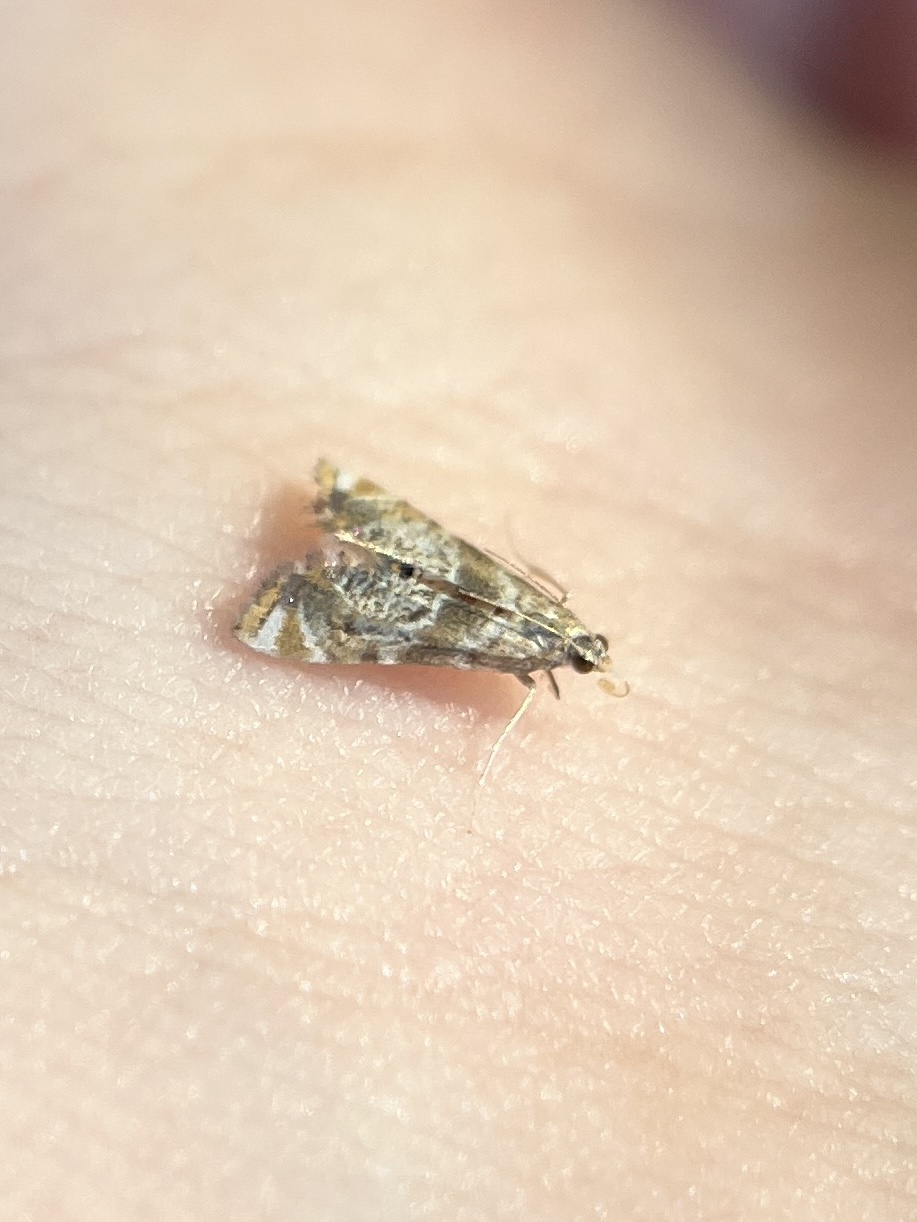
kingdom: Animalia
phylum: Arthropoda
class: Insecta
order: Lepidoptera
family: Crambidae
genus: Petrophila
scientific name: Petrophila fulicalis
